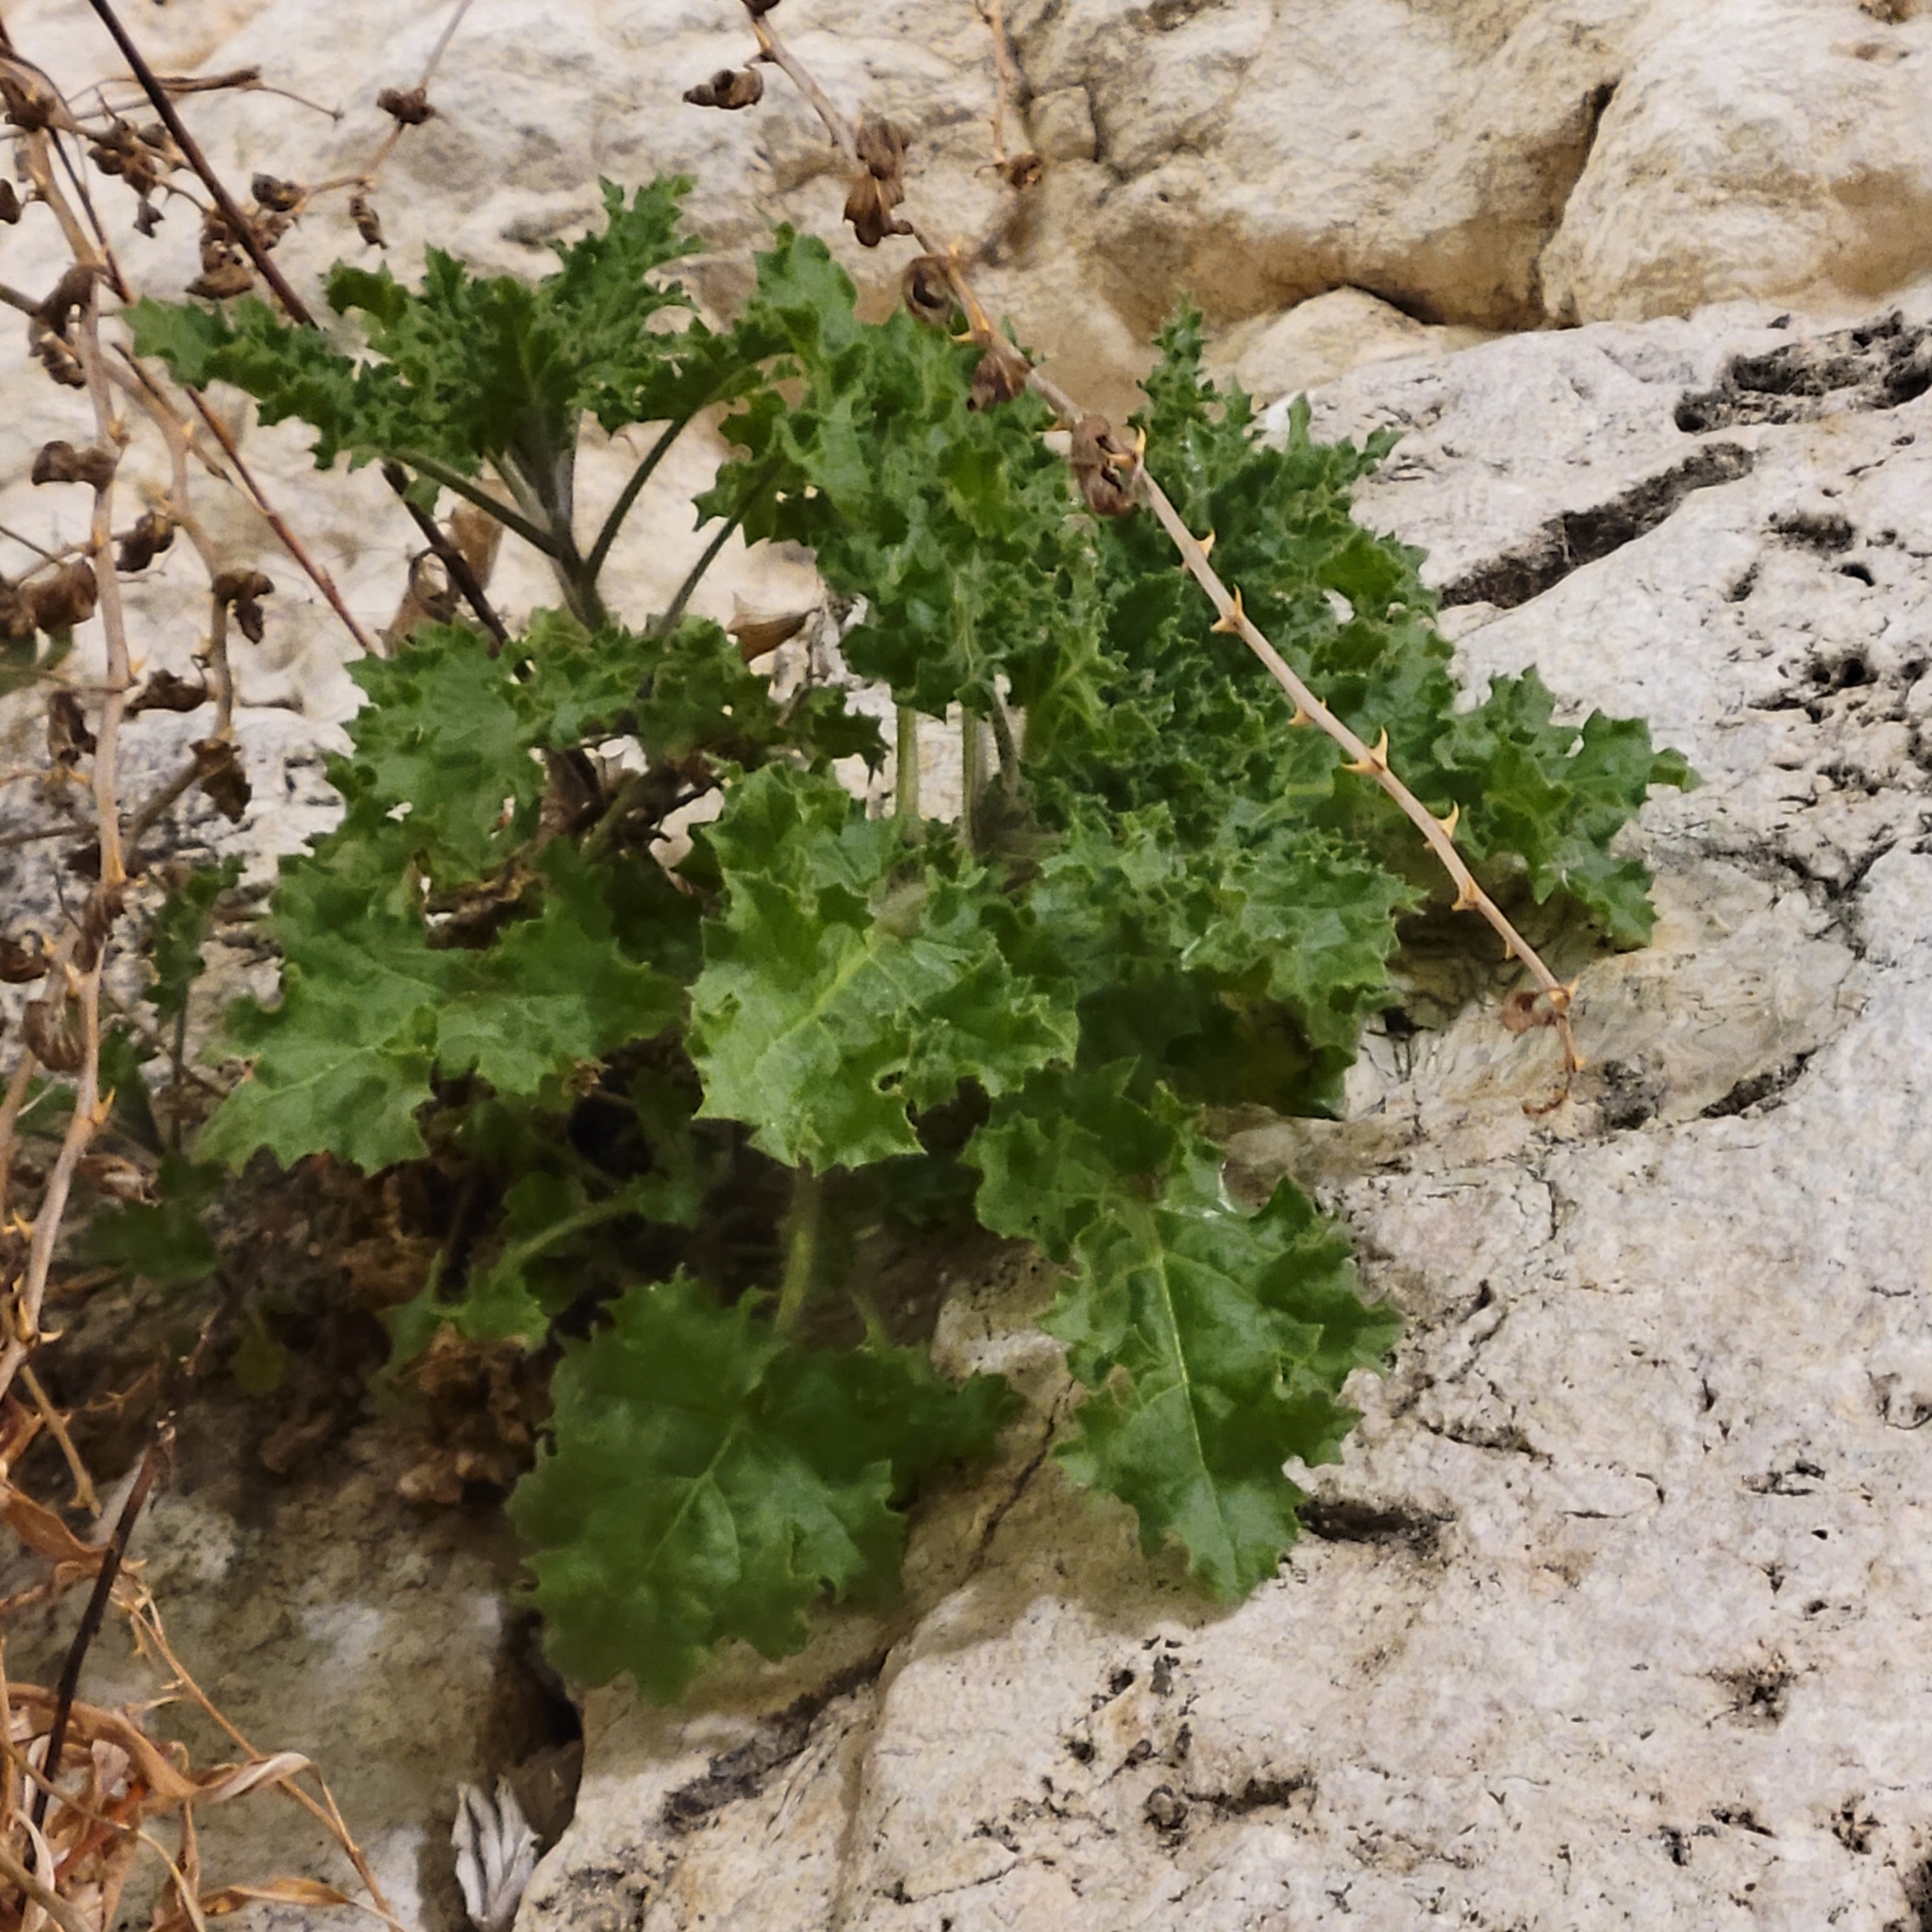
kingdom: Plantae
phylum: Tracheophyta
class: Magnoliopsida
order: Solanales
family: Solanaceae
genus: Hyoscyamus
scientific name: Hyoscyamus aureus
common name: Golden henbane
